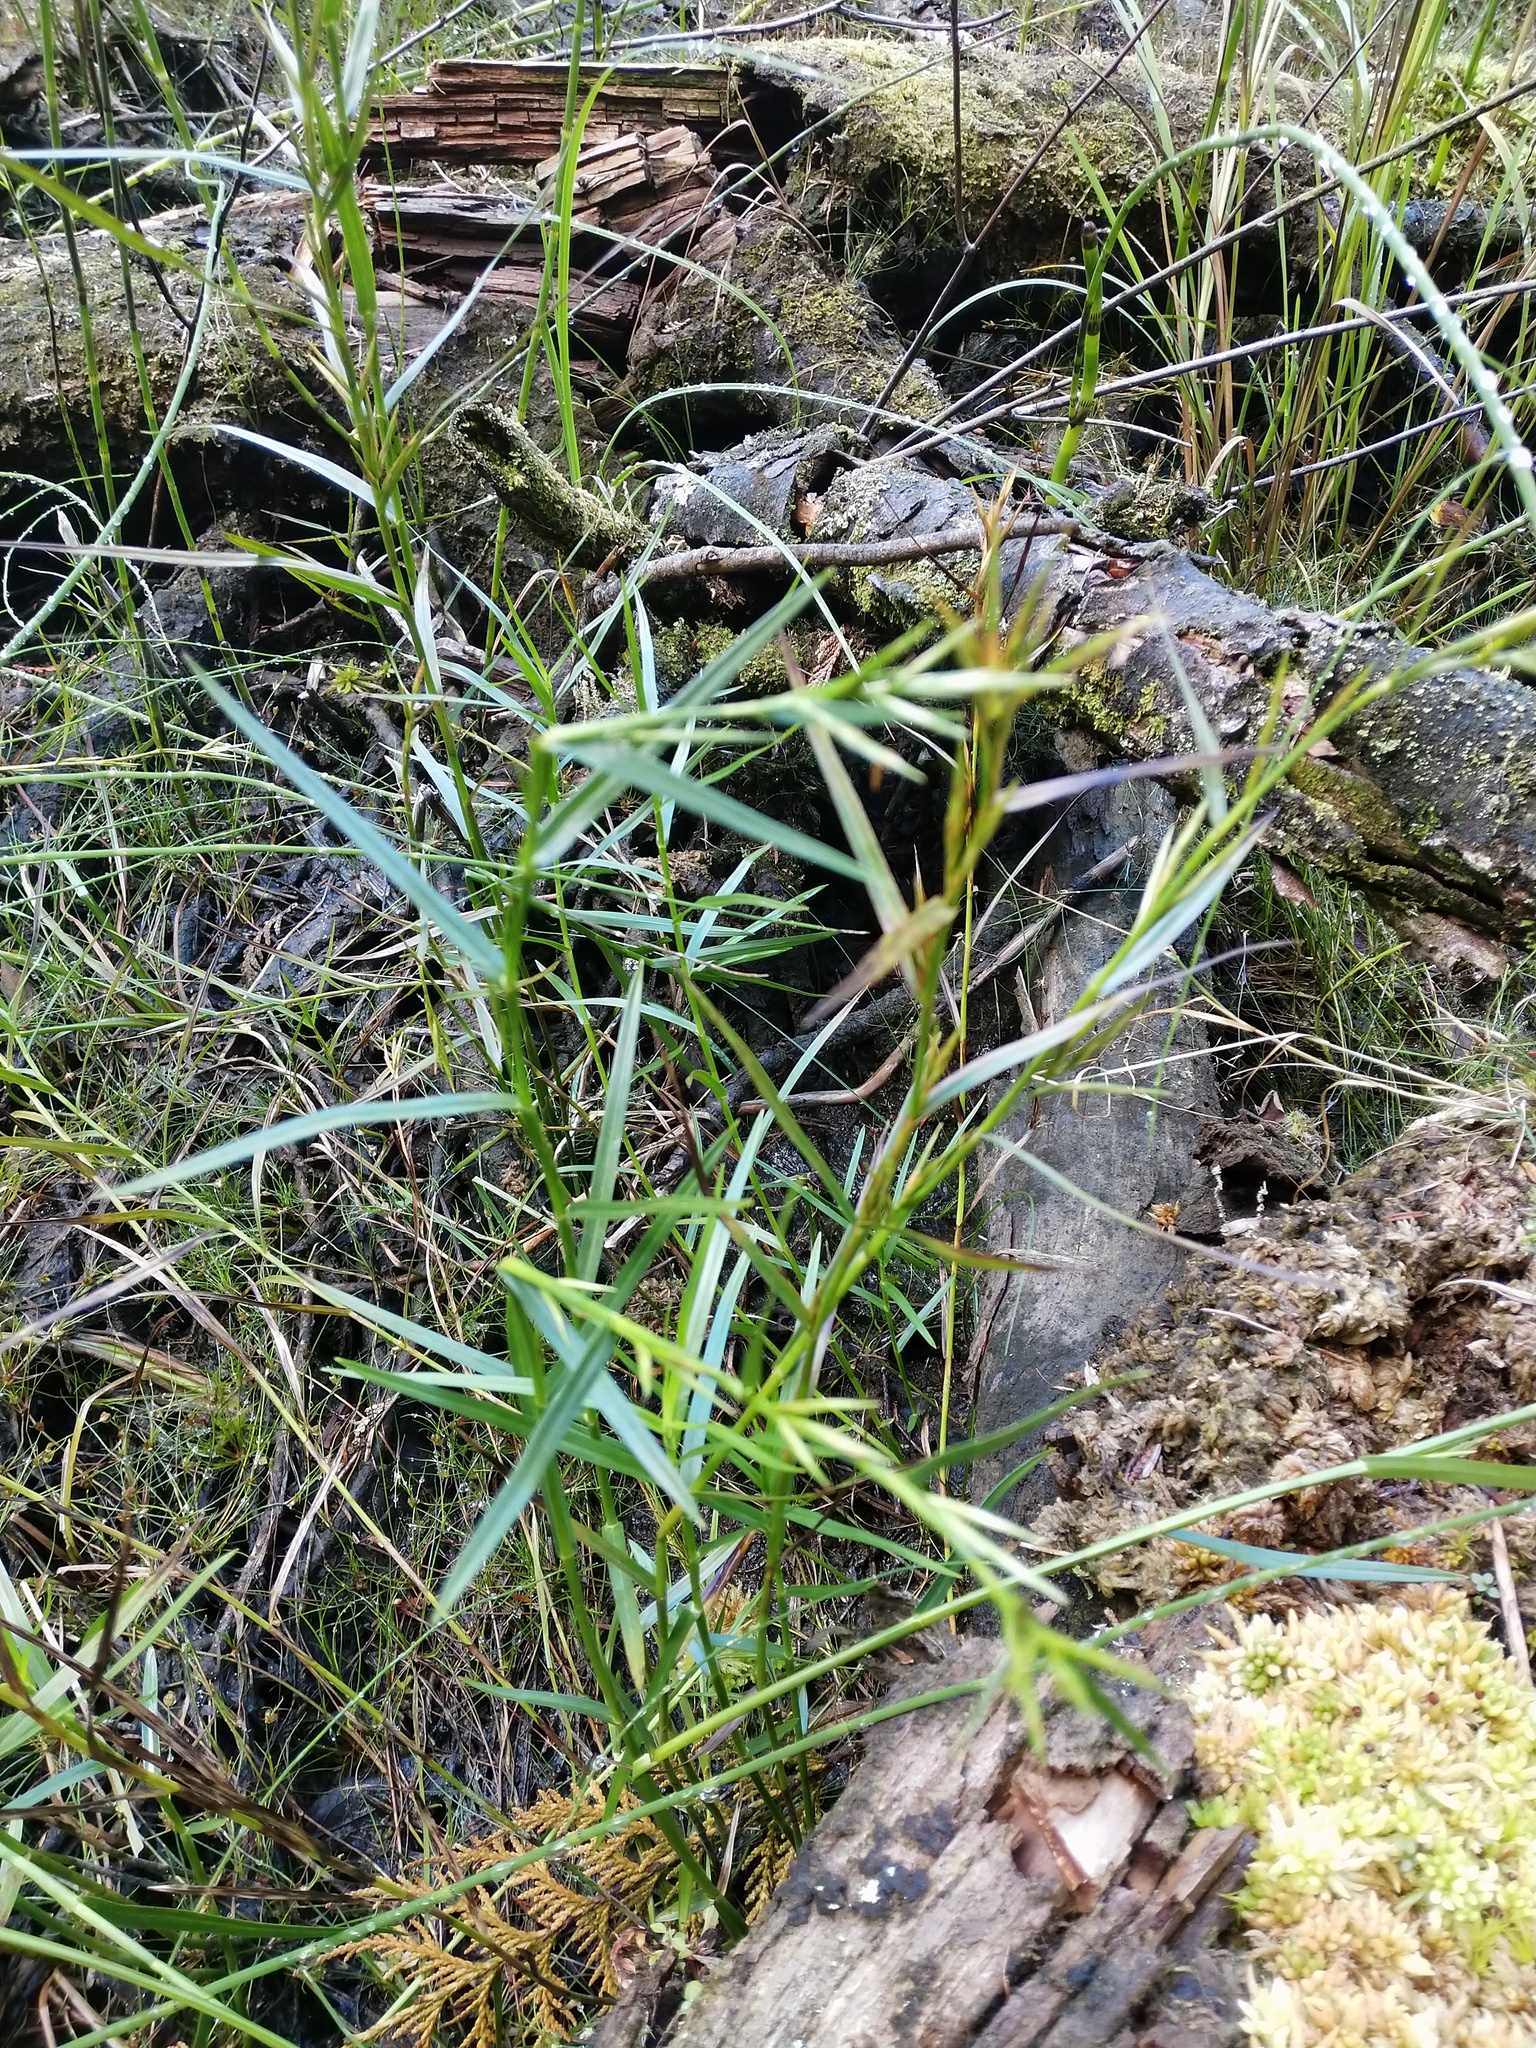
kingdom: Plantae
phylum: Tracheophyta
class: Liliopsida
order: Poales
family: Cyperaceae
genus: Dulichium
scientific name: Dulichium arundinaceum
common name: Three-way sedge
